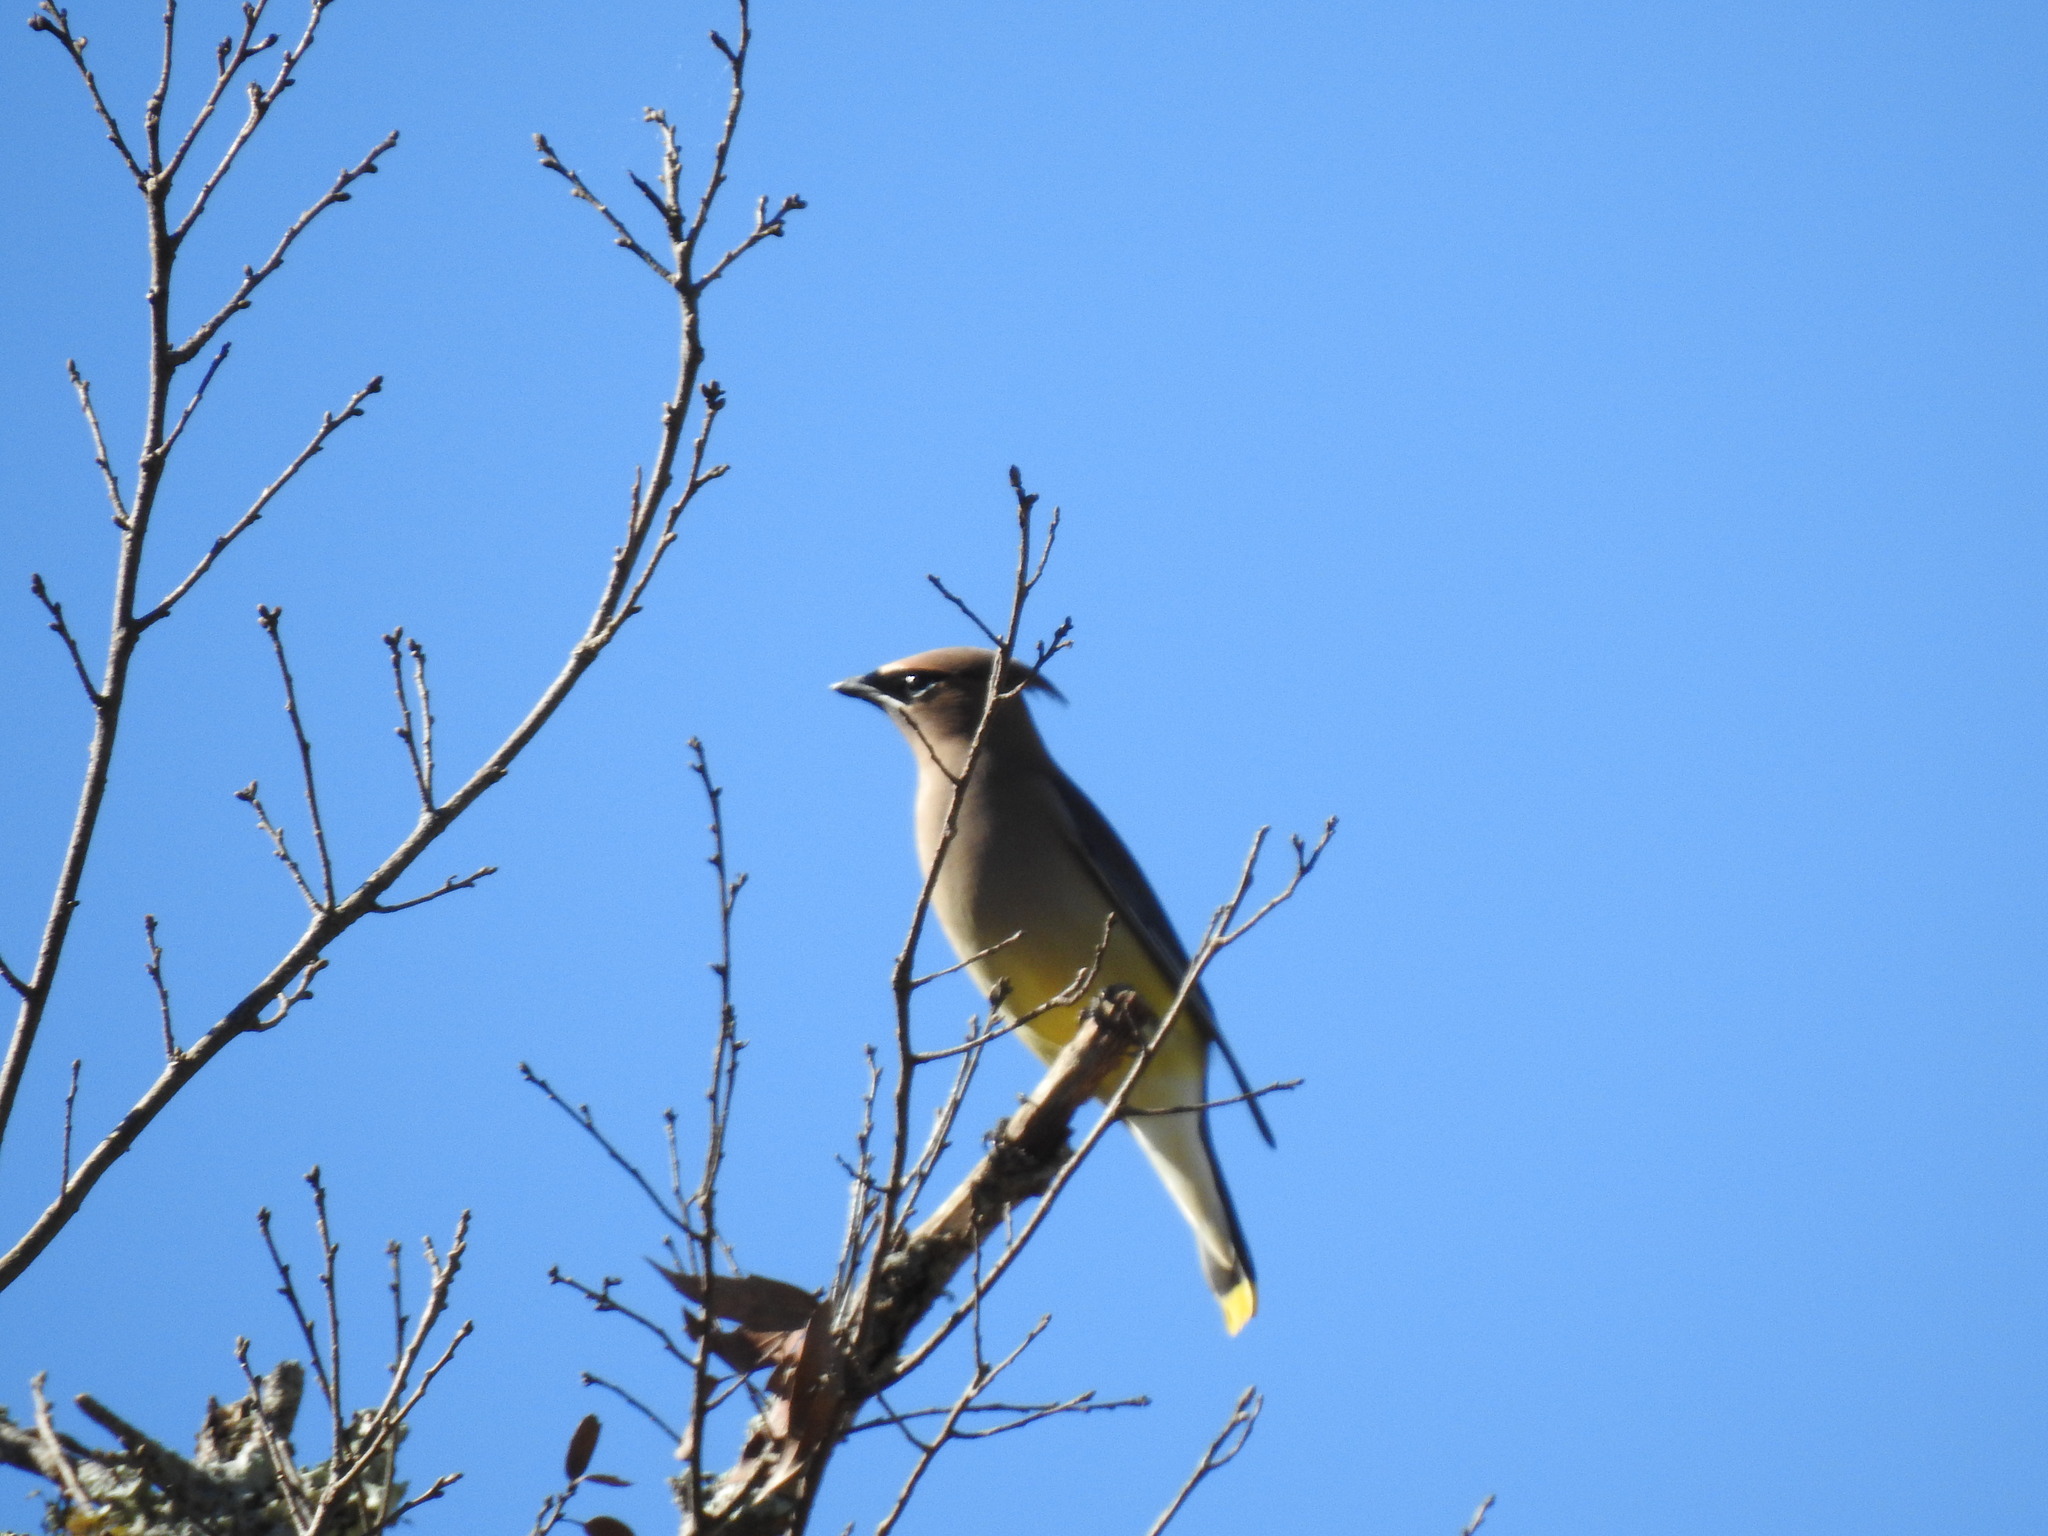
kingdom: Animalia
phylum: Chordata
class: Aves
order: Passeriformes
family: Bombycillidae
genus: Bombycilla
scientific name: Bombycilla cedrorum
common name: Cedar waxwing
